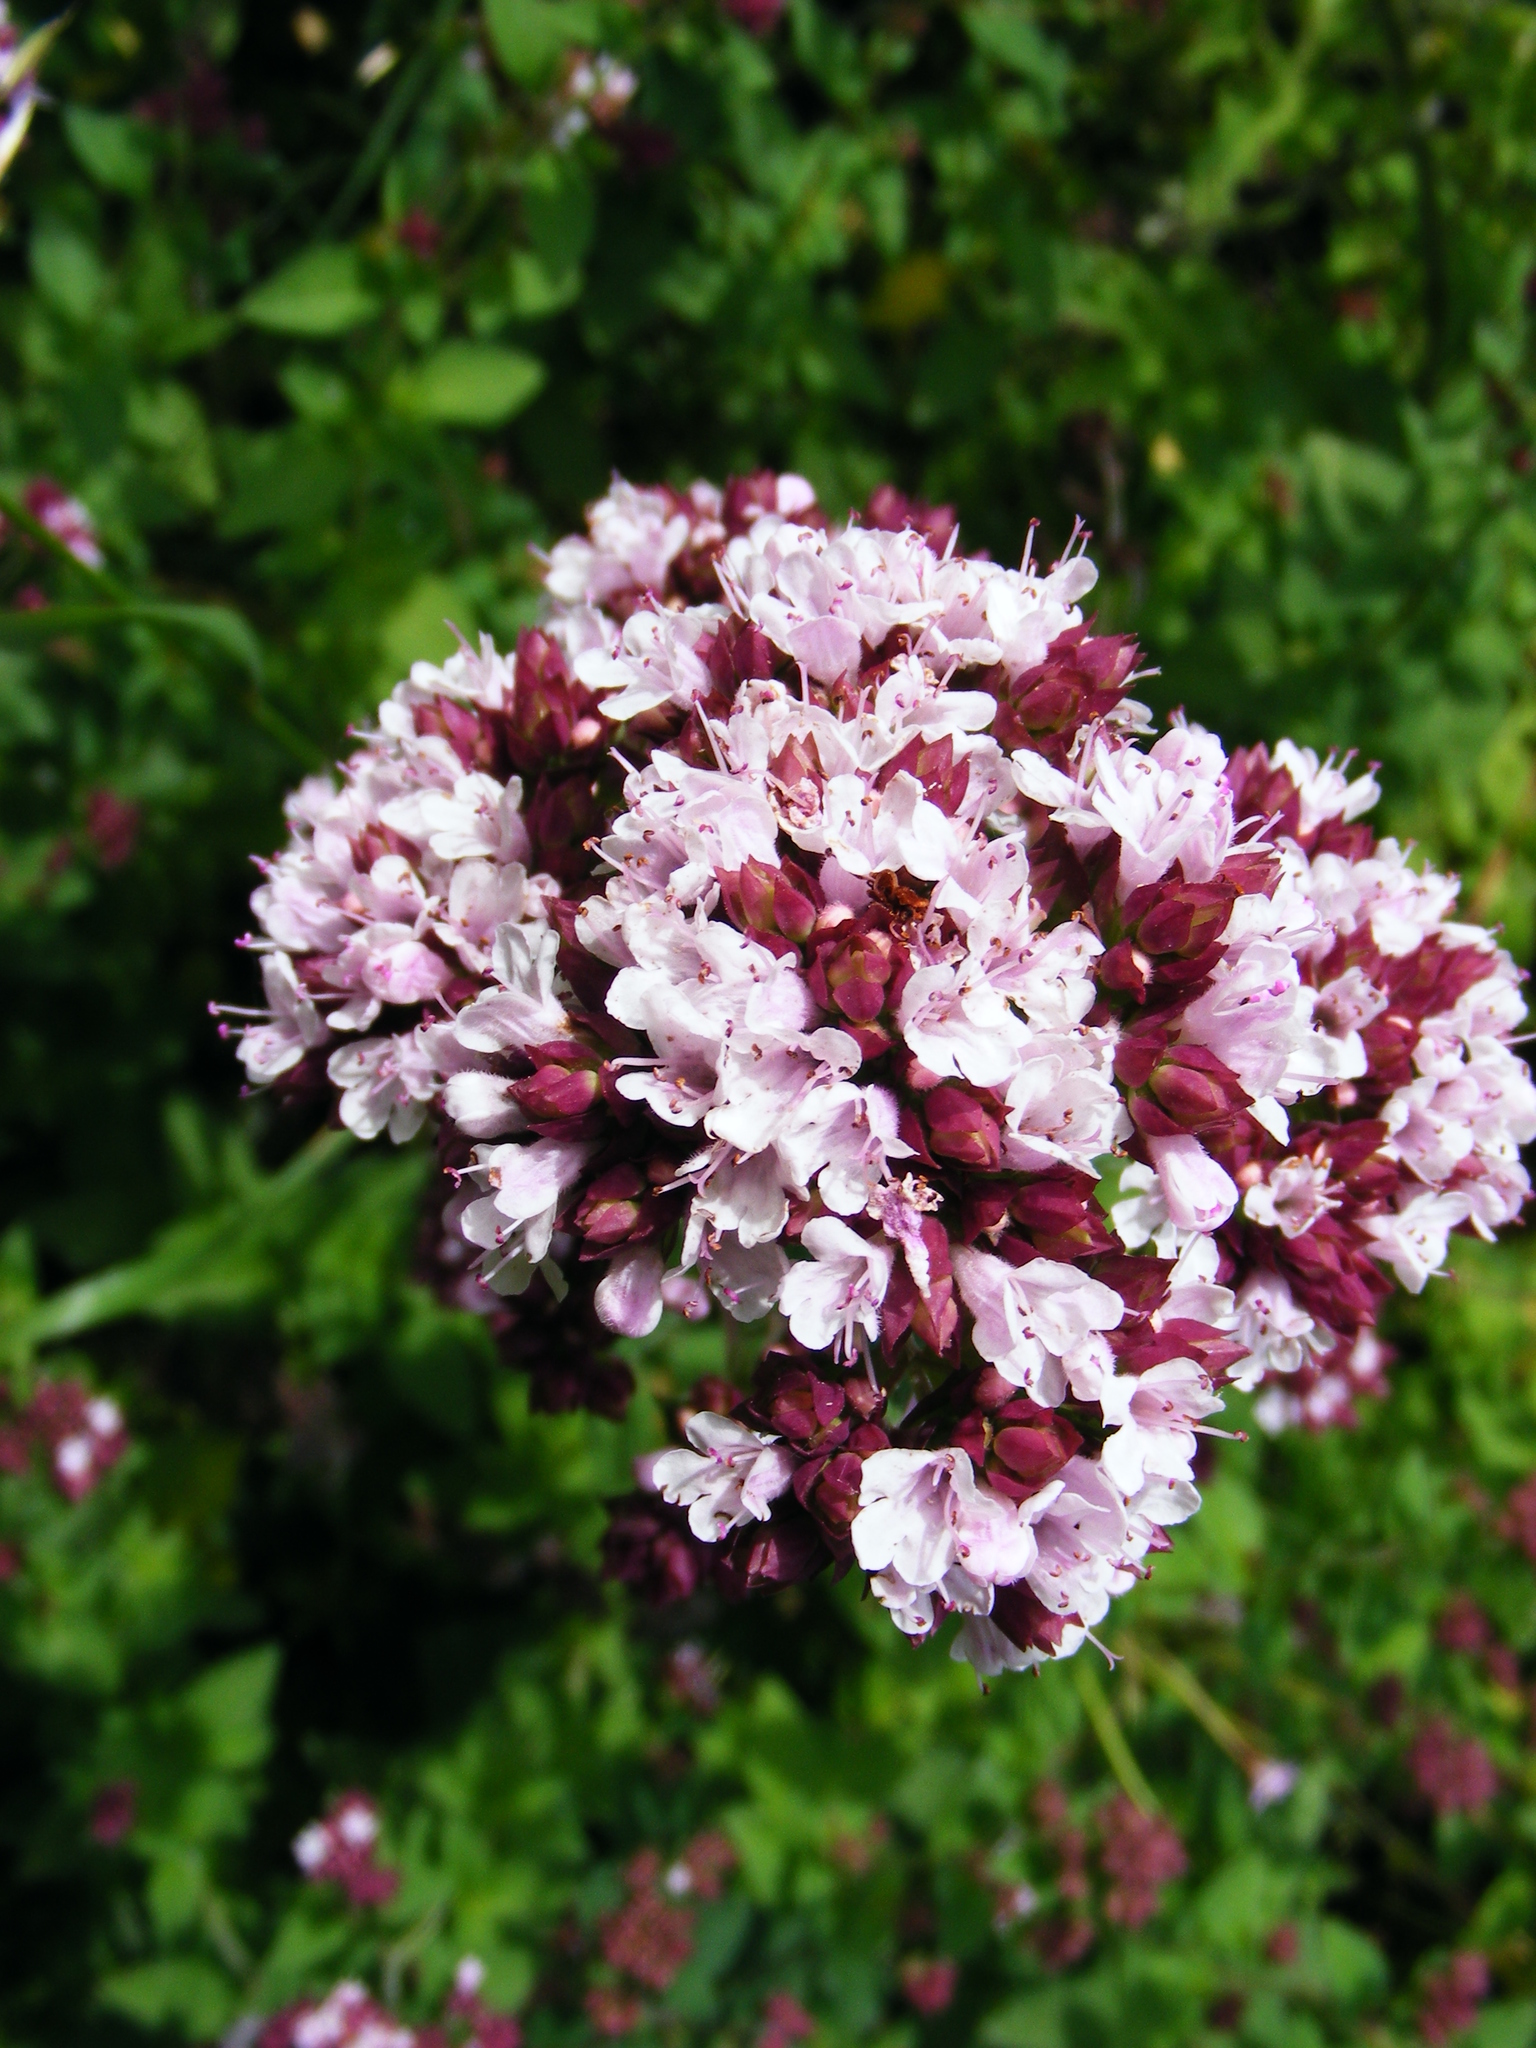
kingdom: Plantae
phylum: Tracheophyta
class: Magnoliopsida
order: Lamiales
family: Lamiaceae
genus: Origanum
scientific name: Origanum vulgare
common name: Wild marjoram
